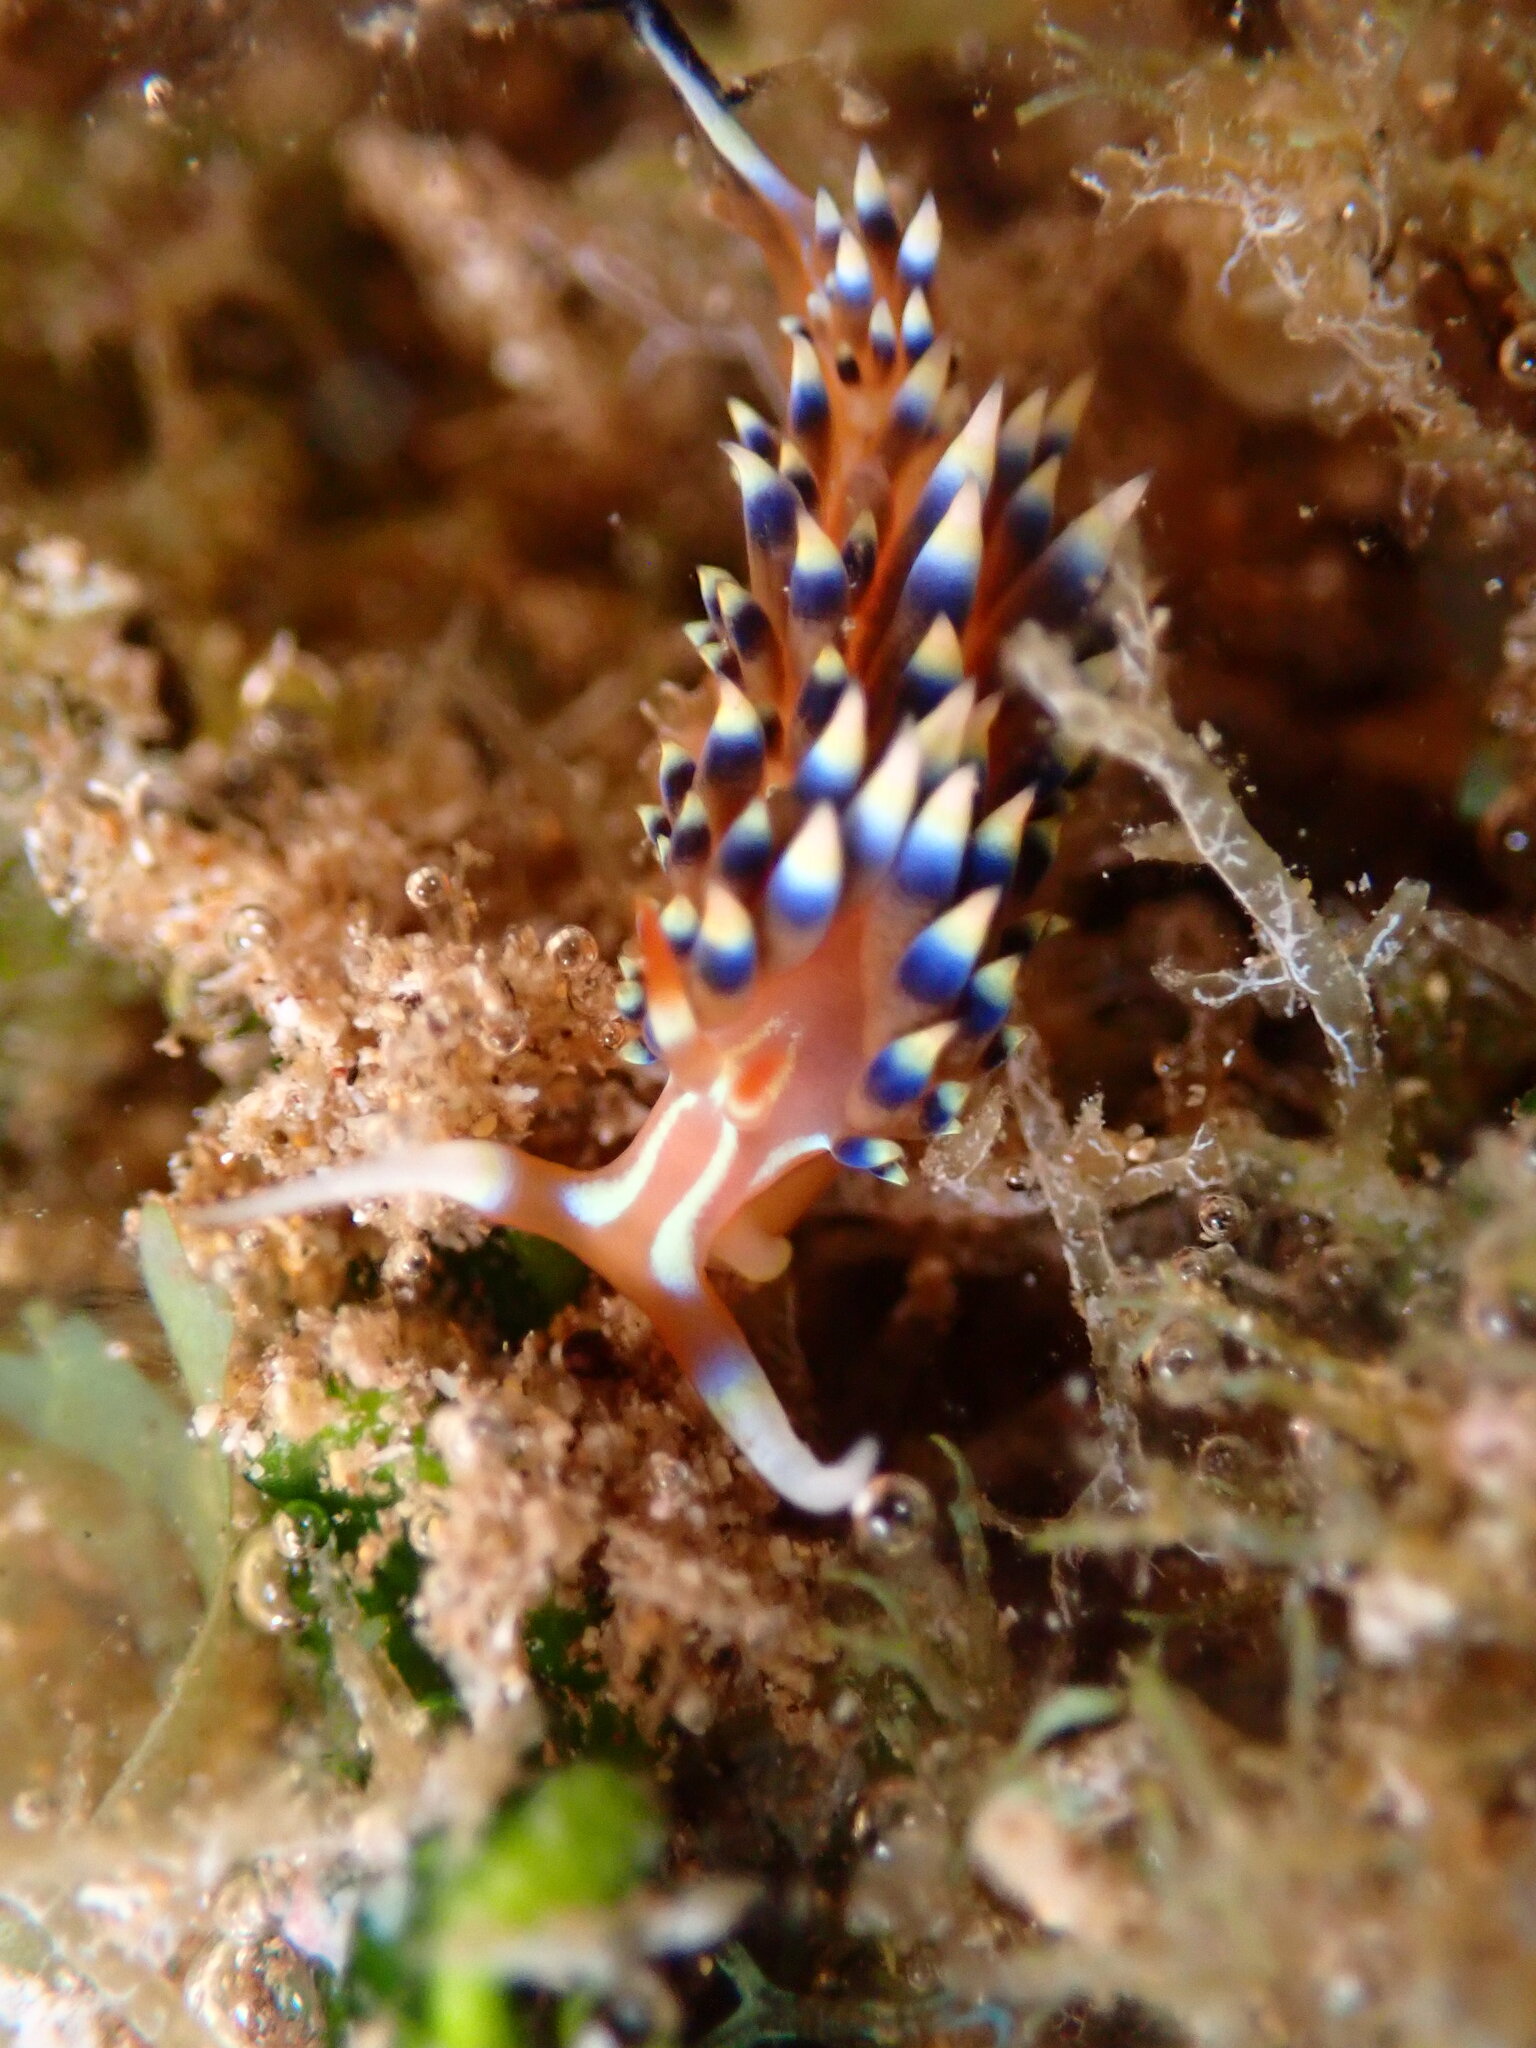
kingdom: Animalia
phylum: Mollusca
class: Gastropoda
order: Nudibranchia
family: Facelinidae
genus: Caloria
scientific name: Caloria indica
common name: Sea slug
